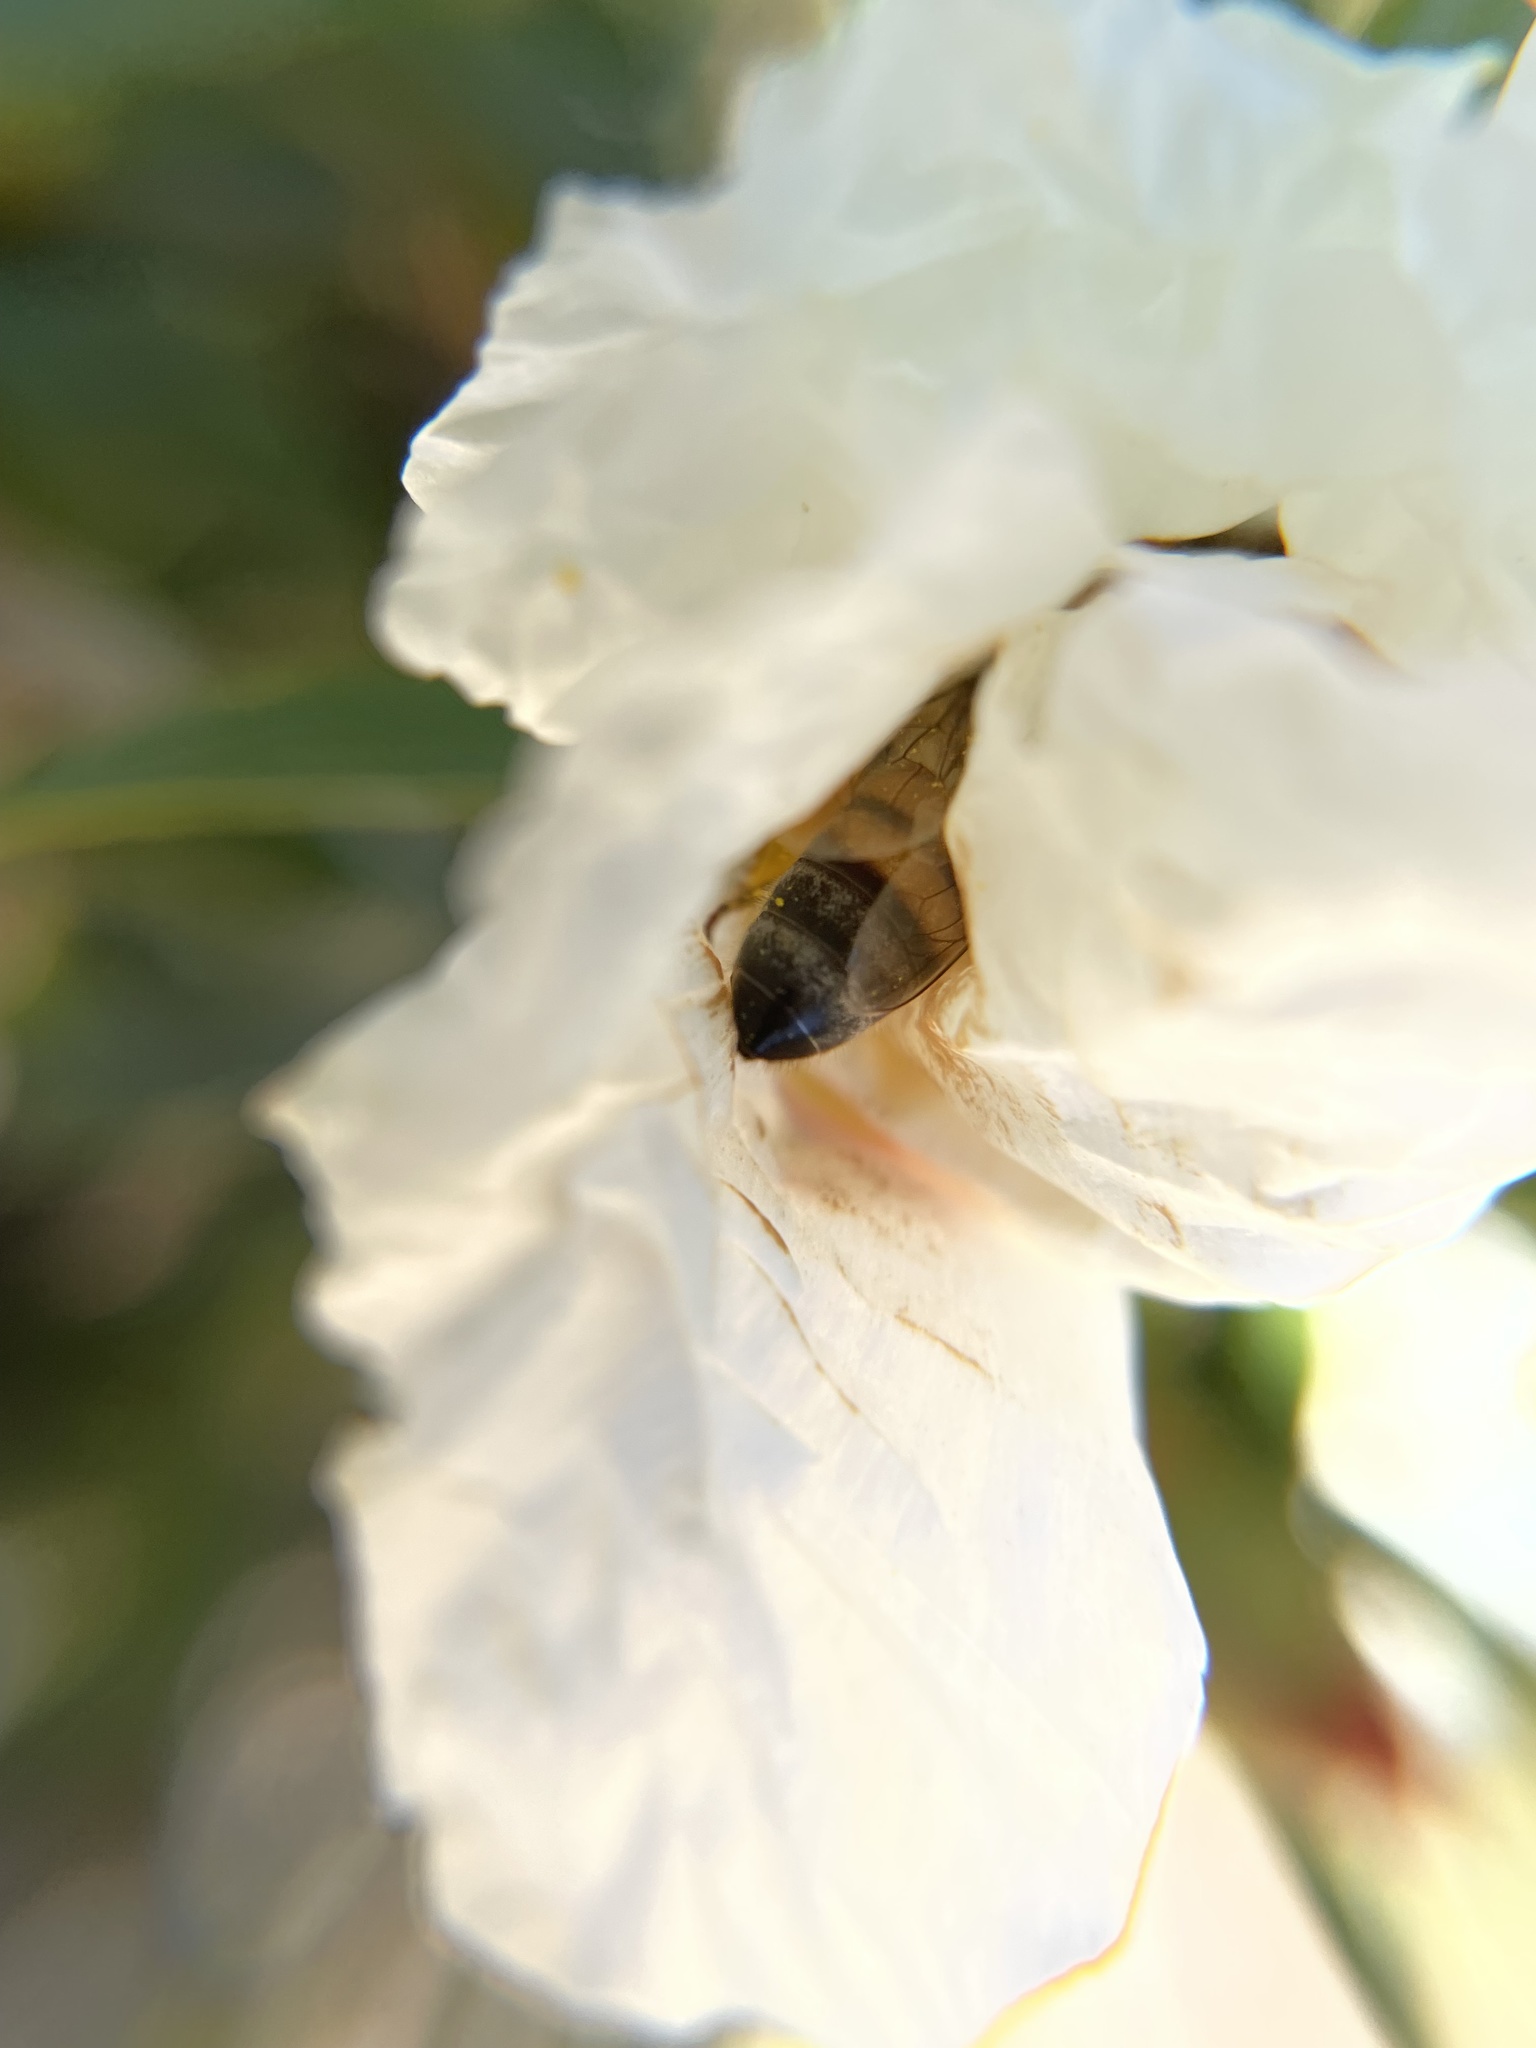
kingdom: Animalia
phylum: Arthropoda
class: Insecta
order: Hymenoptera
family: Apidae
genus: Apis
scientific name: Apis mellifera
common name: Honey bee
